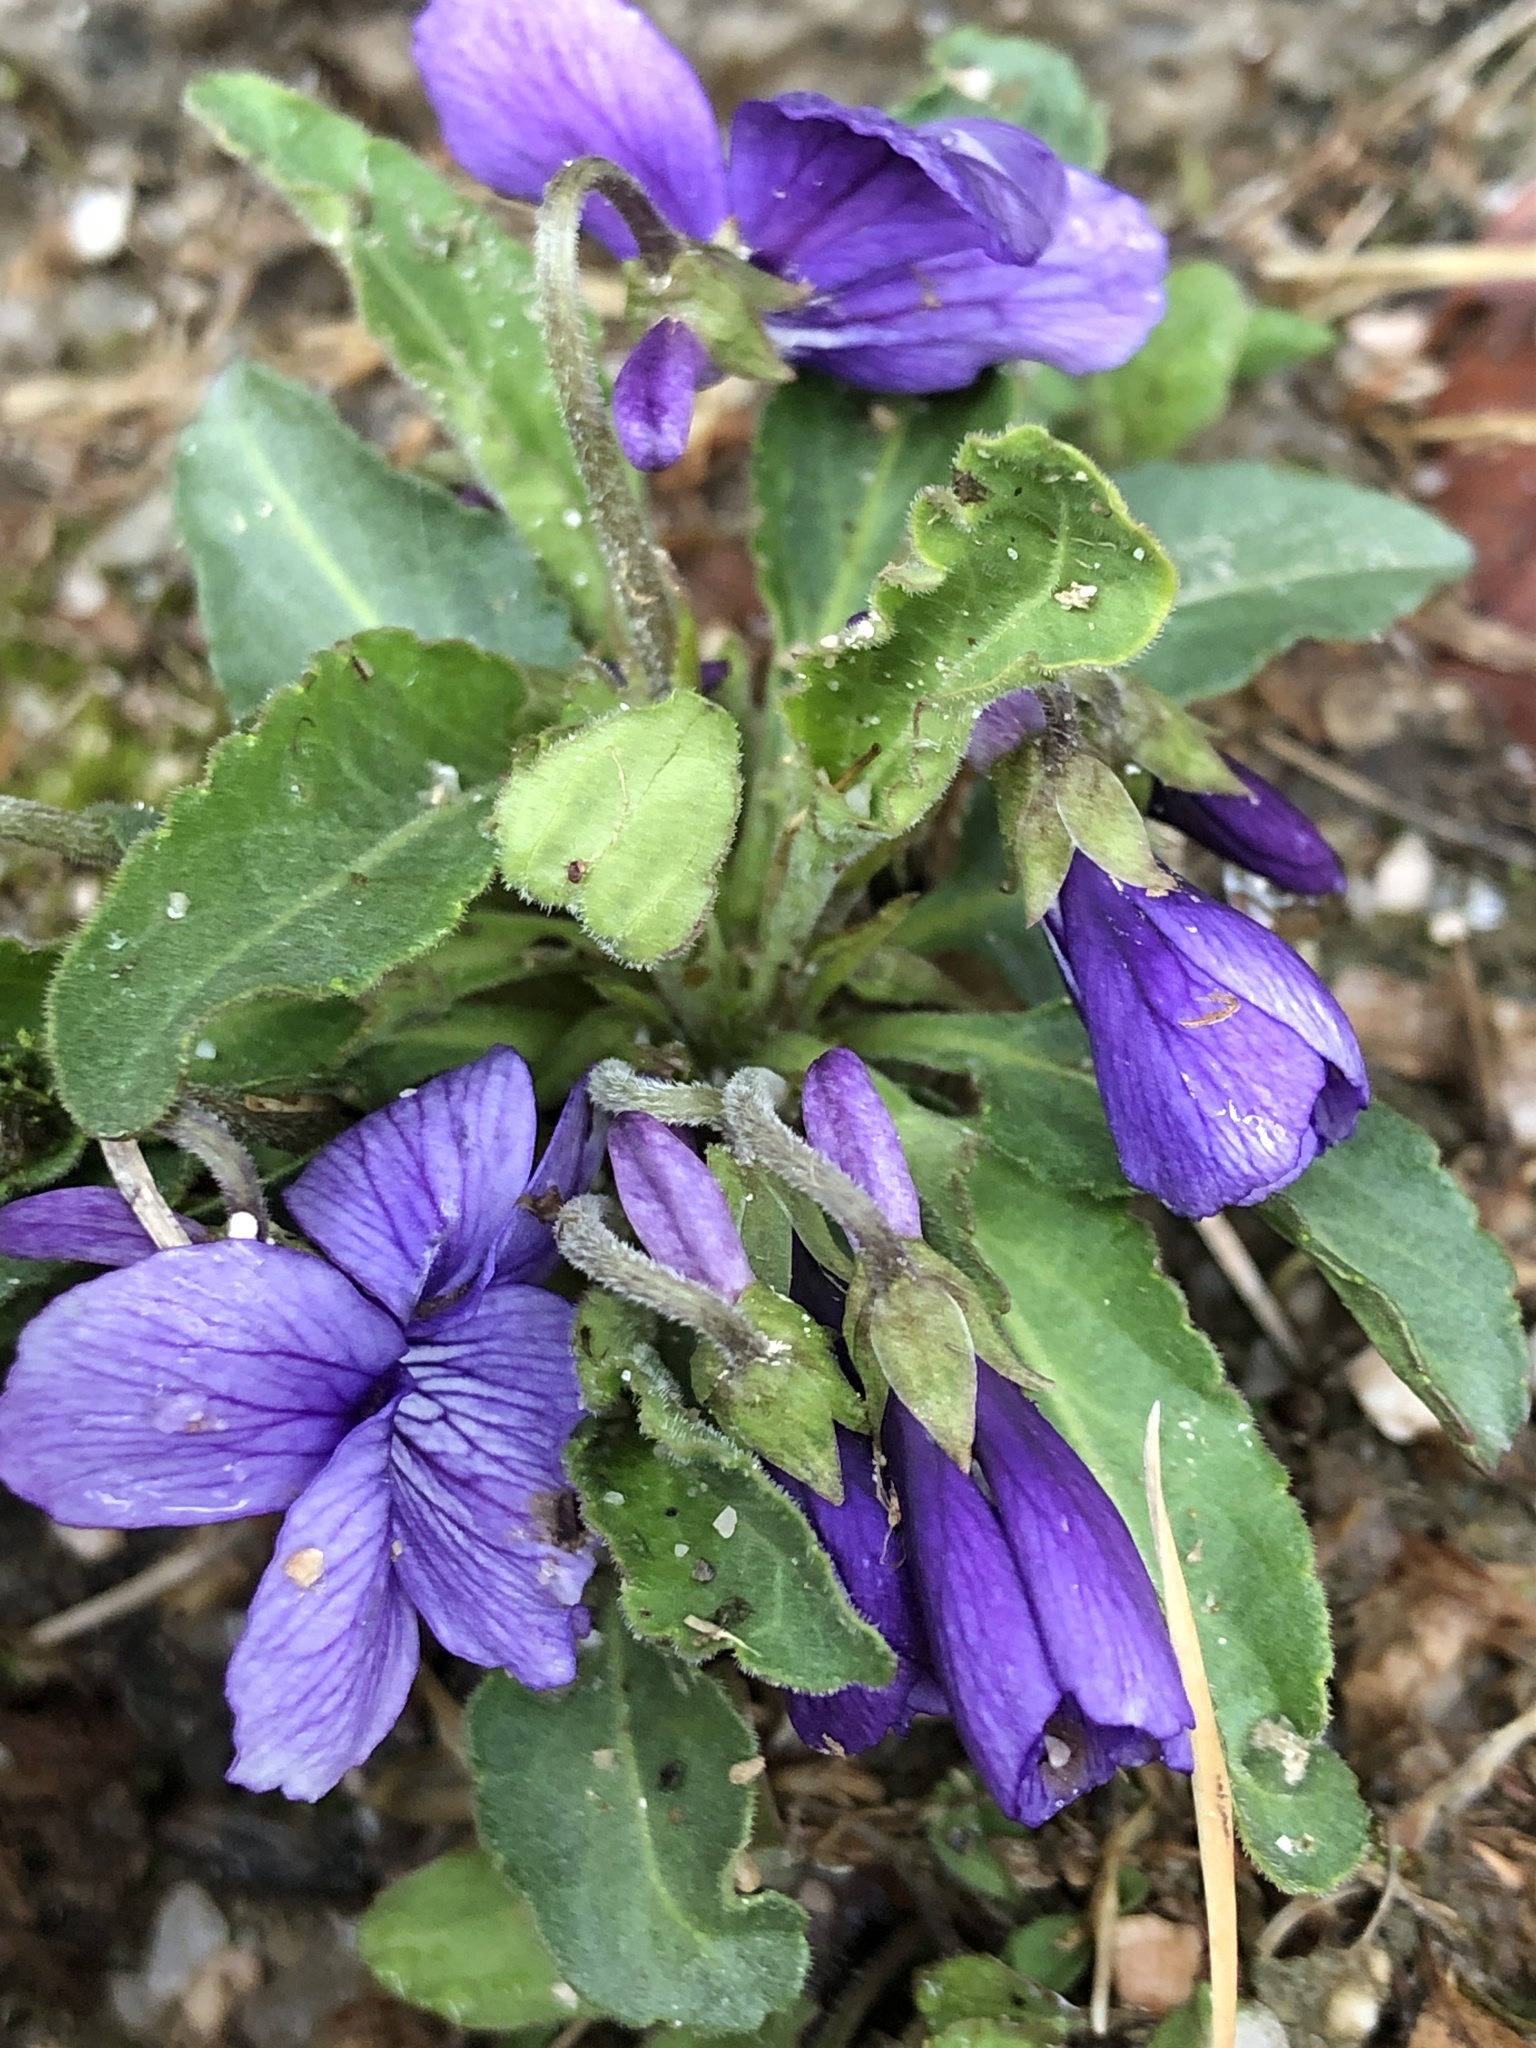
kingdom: Plantae
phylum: Tracheophyta
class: Magnoliopsida
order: Malpighiales
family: Violaceae
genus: Viola
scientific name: Viola philippica
